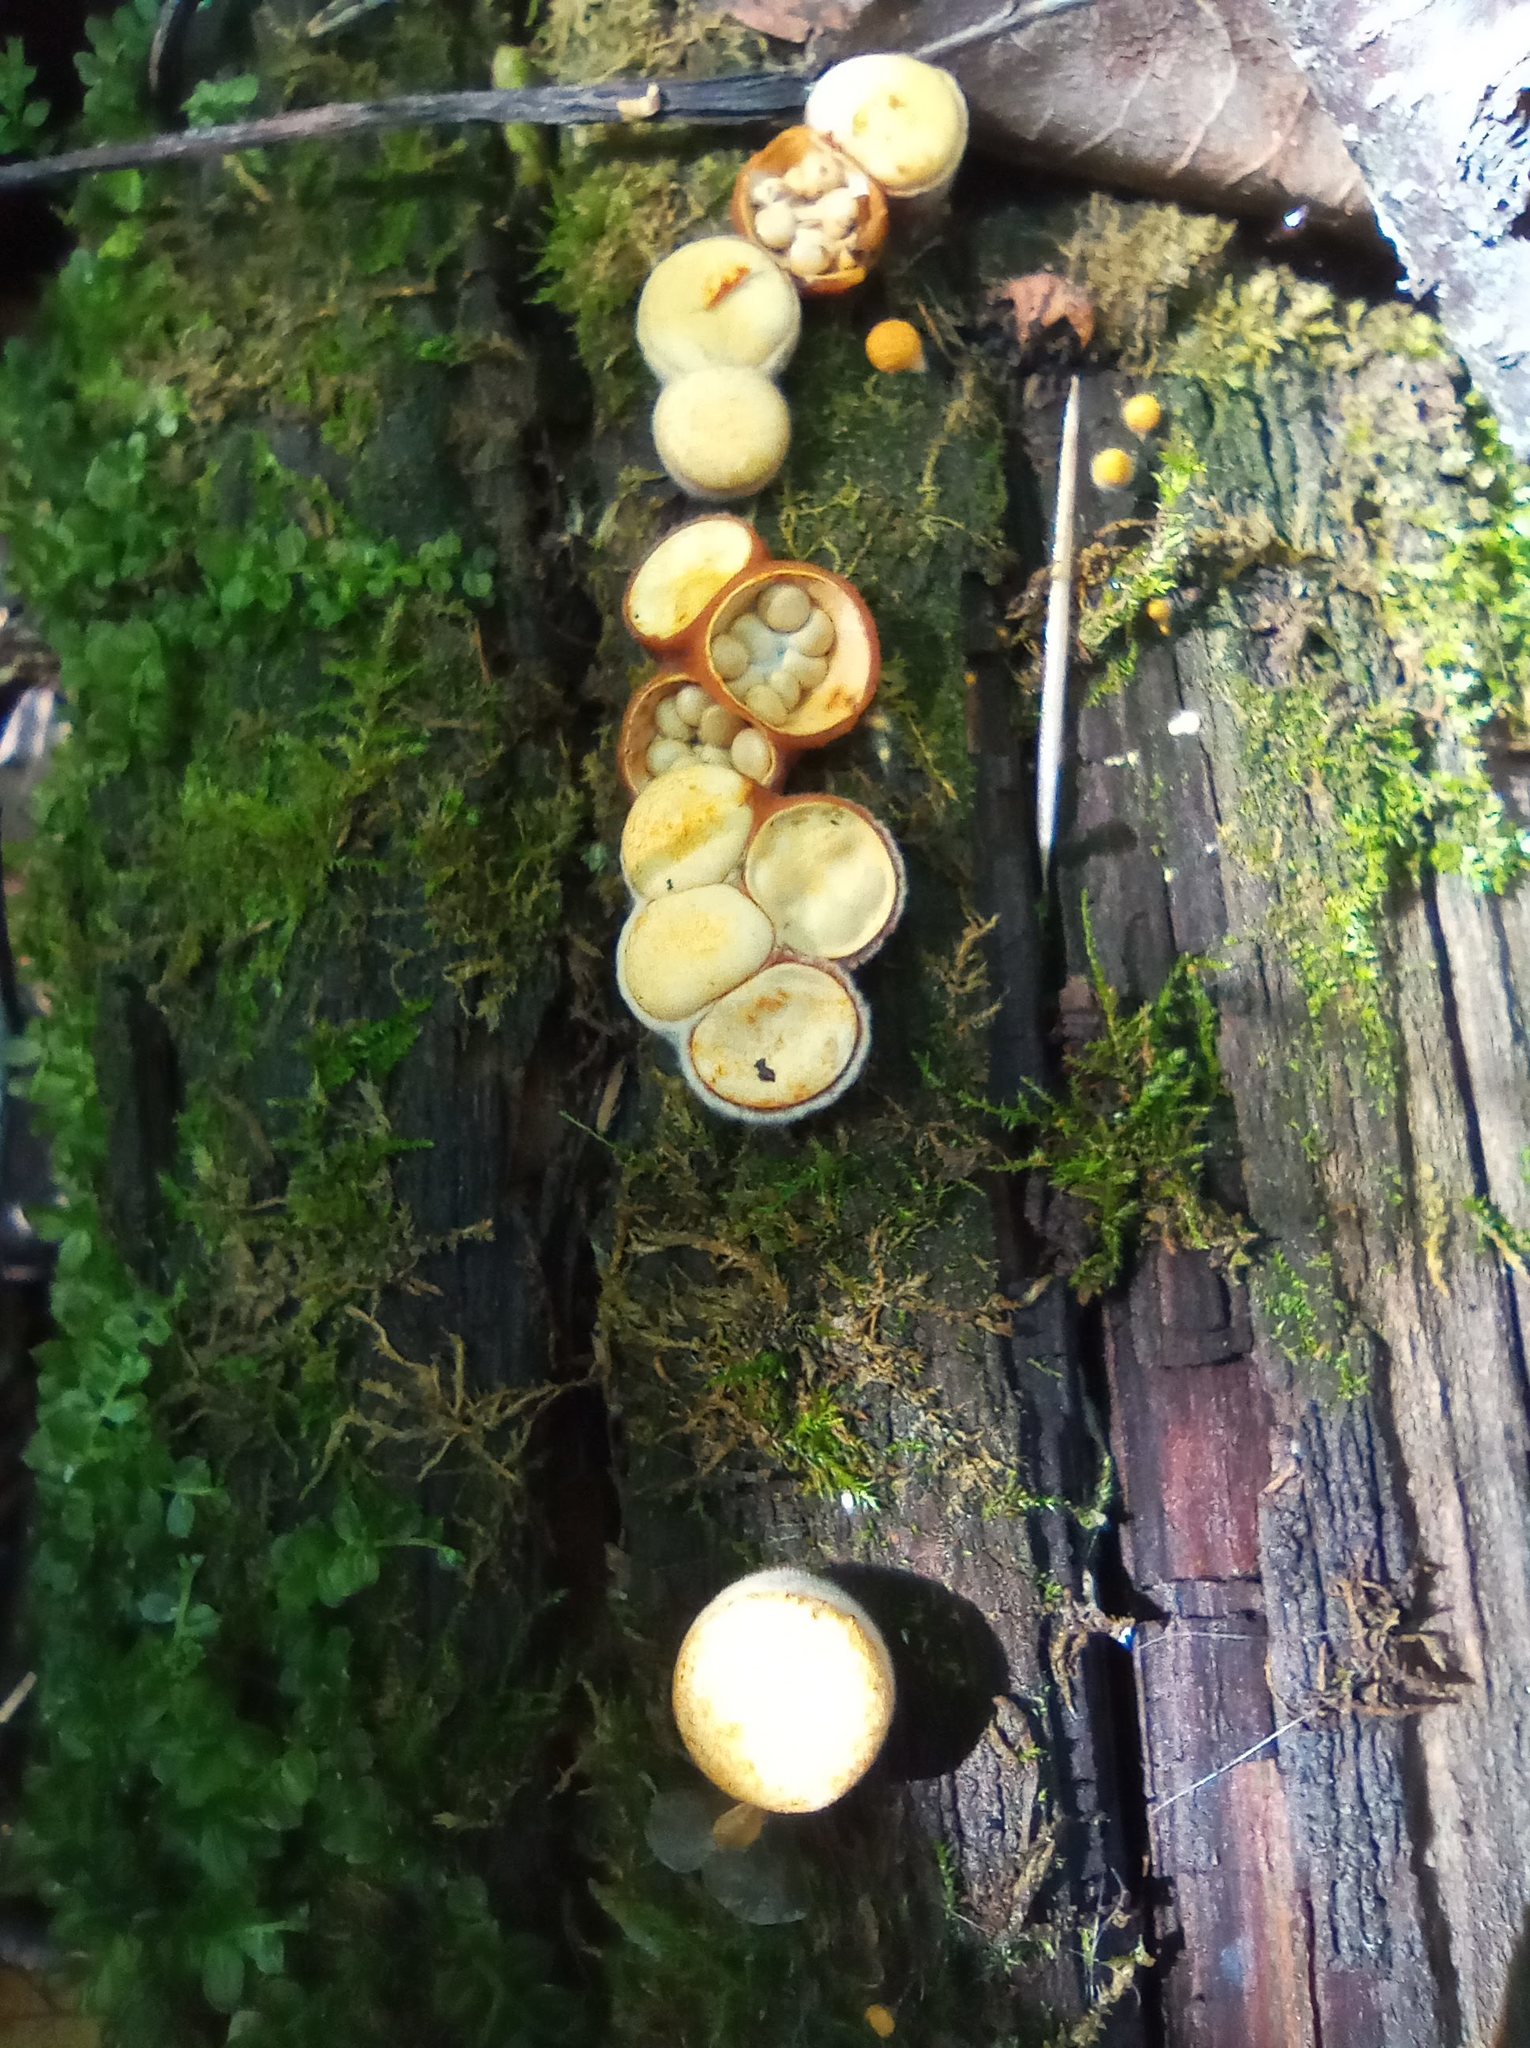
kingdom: Fungi
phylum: Basidiomycota
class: Agaricomycetes
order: Agaricales
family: Nidulariaceae
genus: Crucibulum
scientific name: Crucibulum laeve
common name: Common bird's nest
